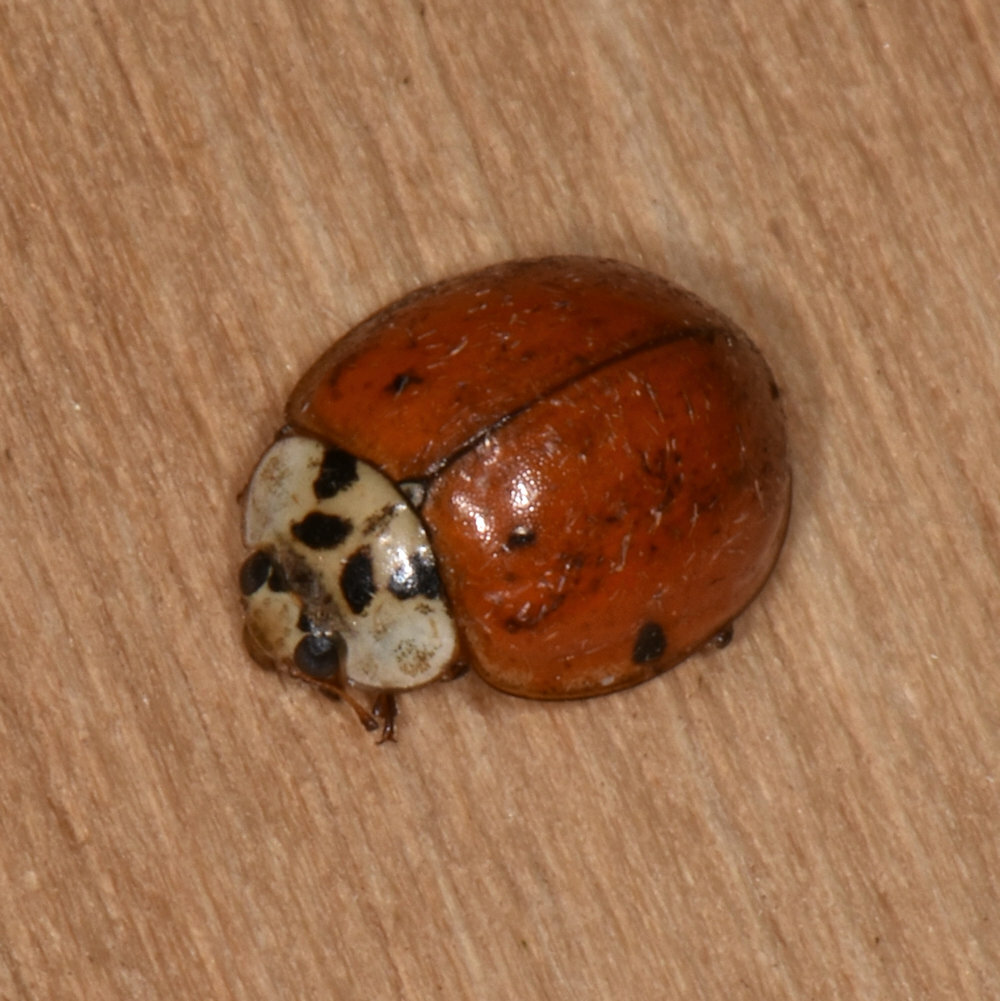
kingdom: Animalia
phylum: Arthropoda
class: Insecta
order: Coleoptera
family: Coccinellidae
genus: Harmonia
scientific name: Harmonia axyridis
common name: Harlequin ladybird
